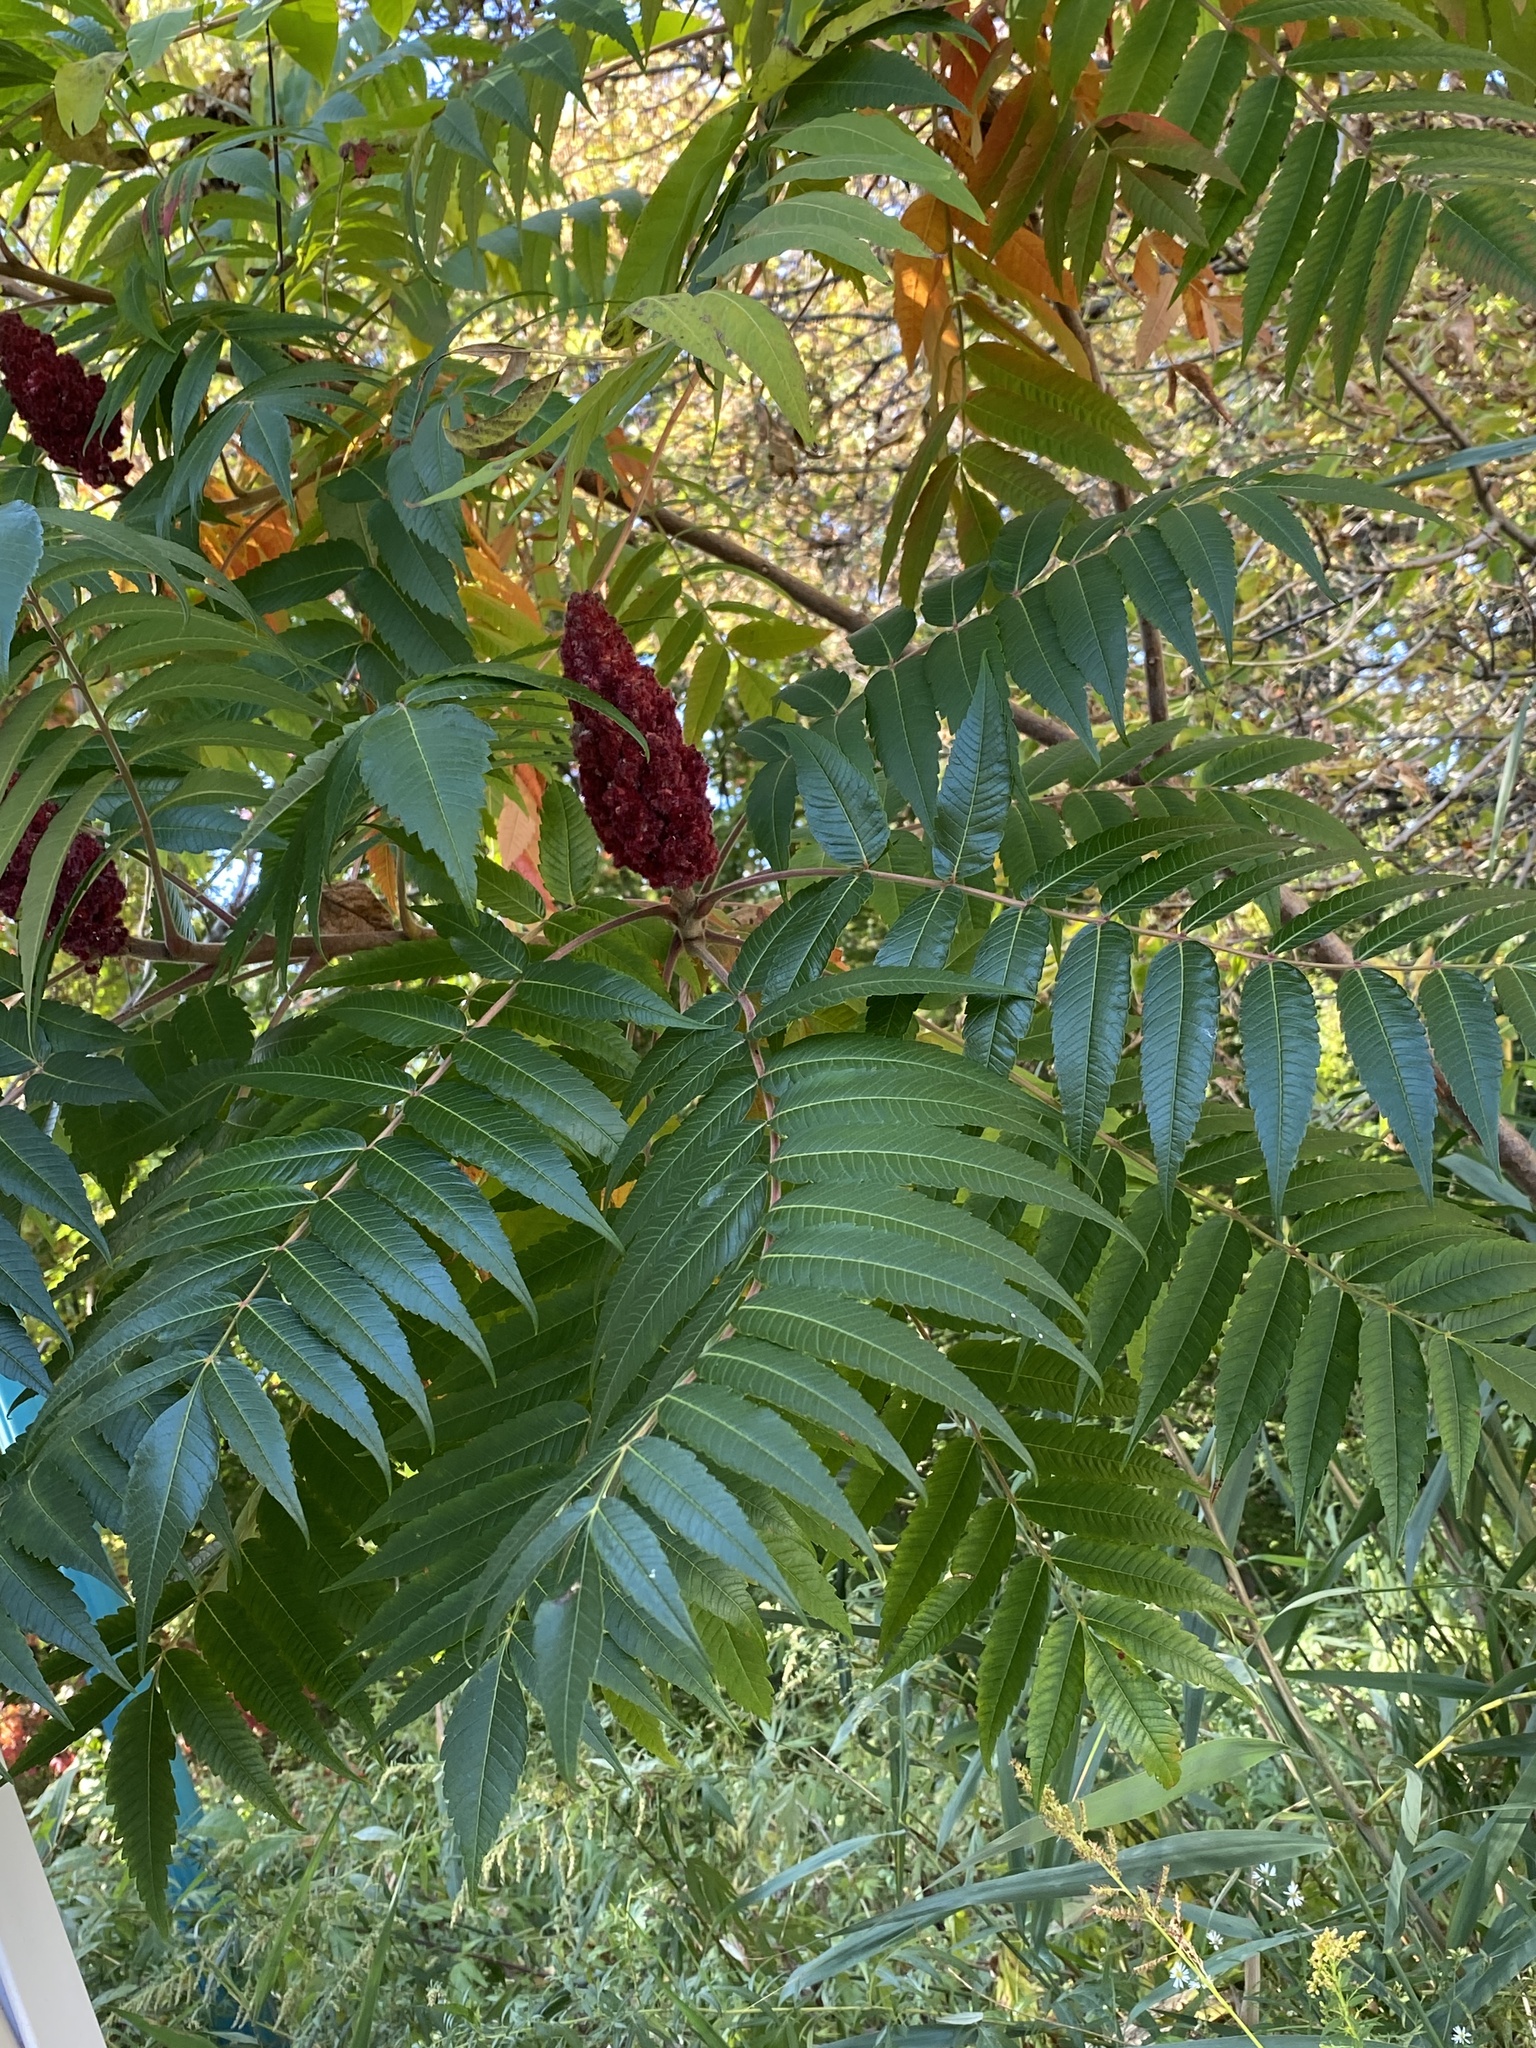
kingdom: Plantae
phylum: Tracheophyta
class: Magnoliopsida
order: Sapindales
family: Anacardiaceae
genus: Rhus
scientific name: Rhus typhina
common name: Staghorn sumac
